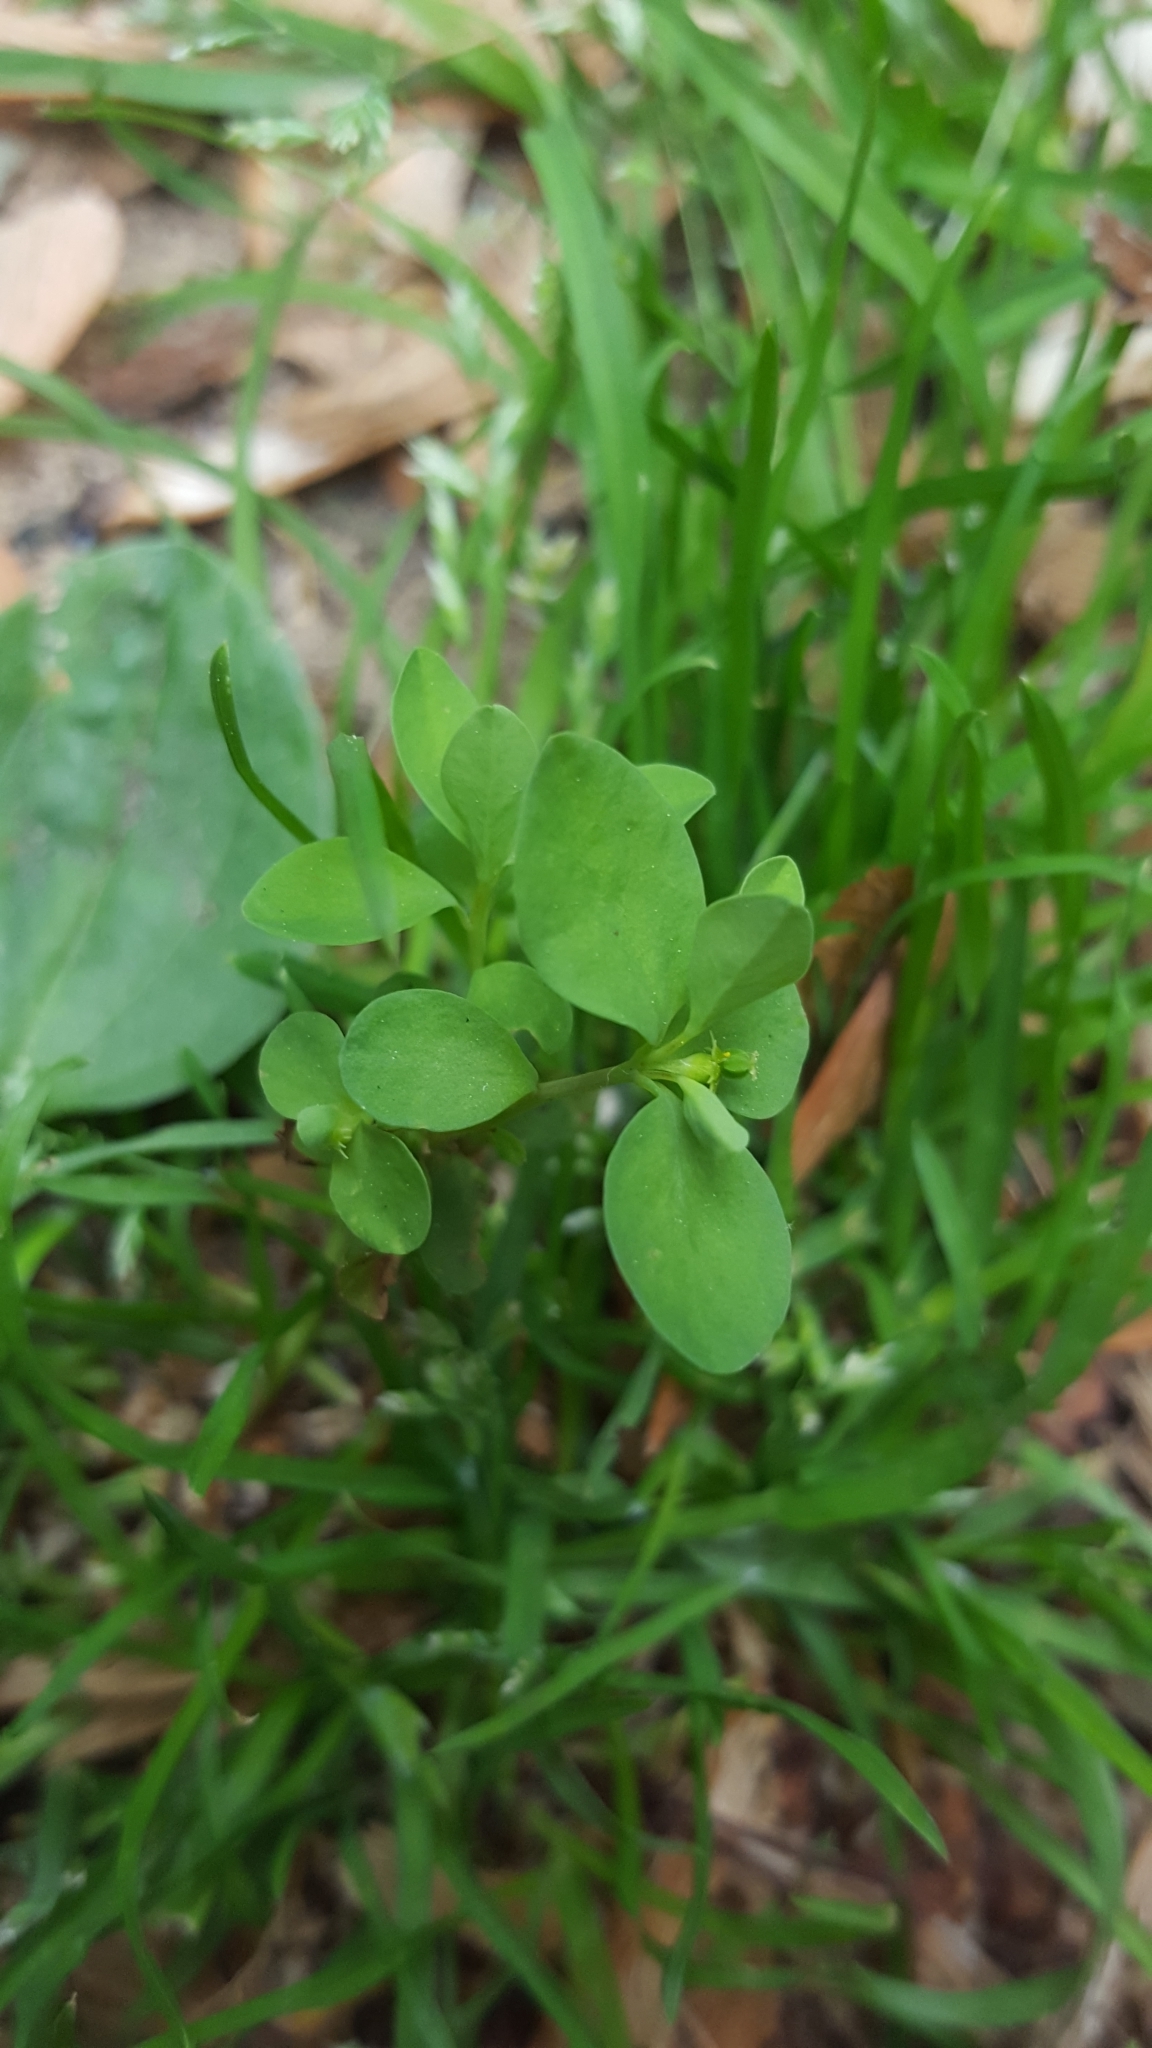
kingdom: Plantae
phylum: Tracheophyta
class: Magnoliopsida
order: Malpighiales
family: Euphorbiaceae
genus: Euphorbia
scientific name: Euphorbia peplus
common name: Petty spurge
